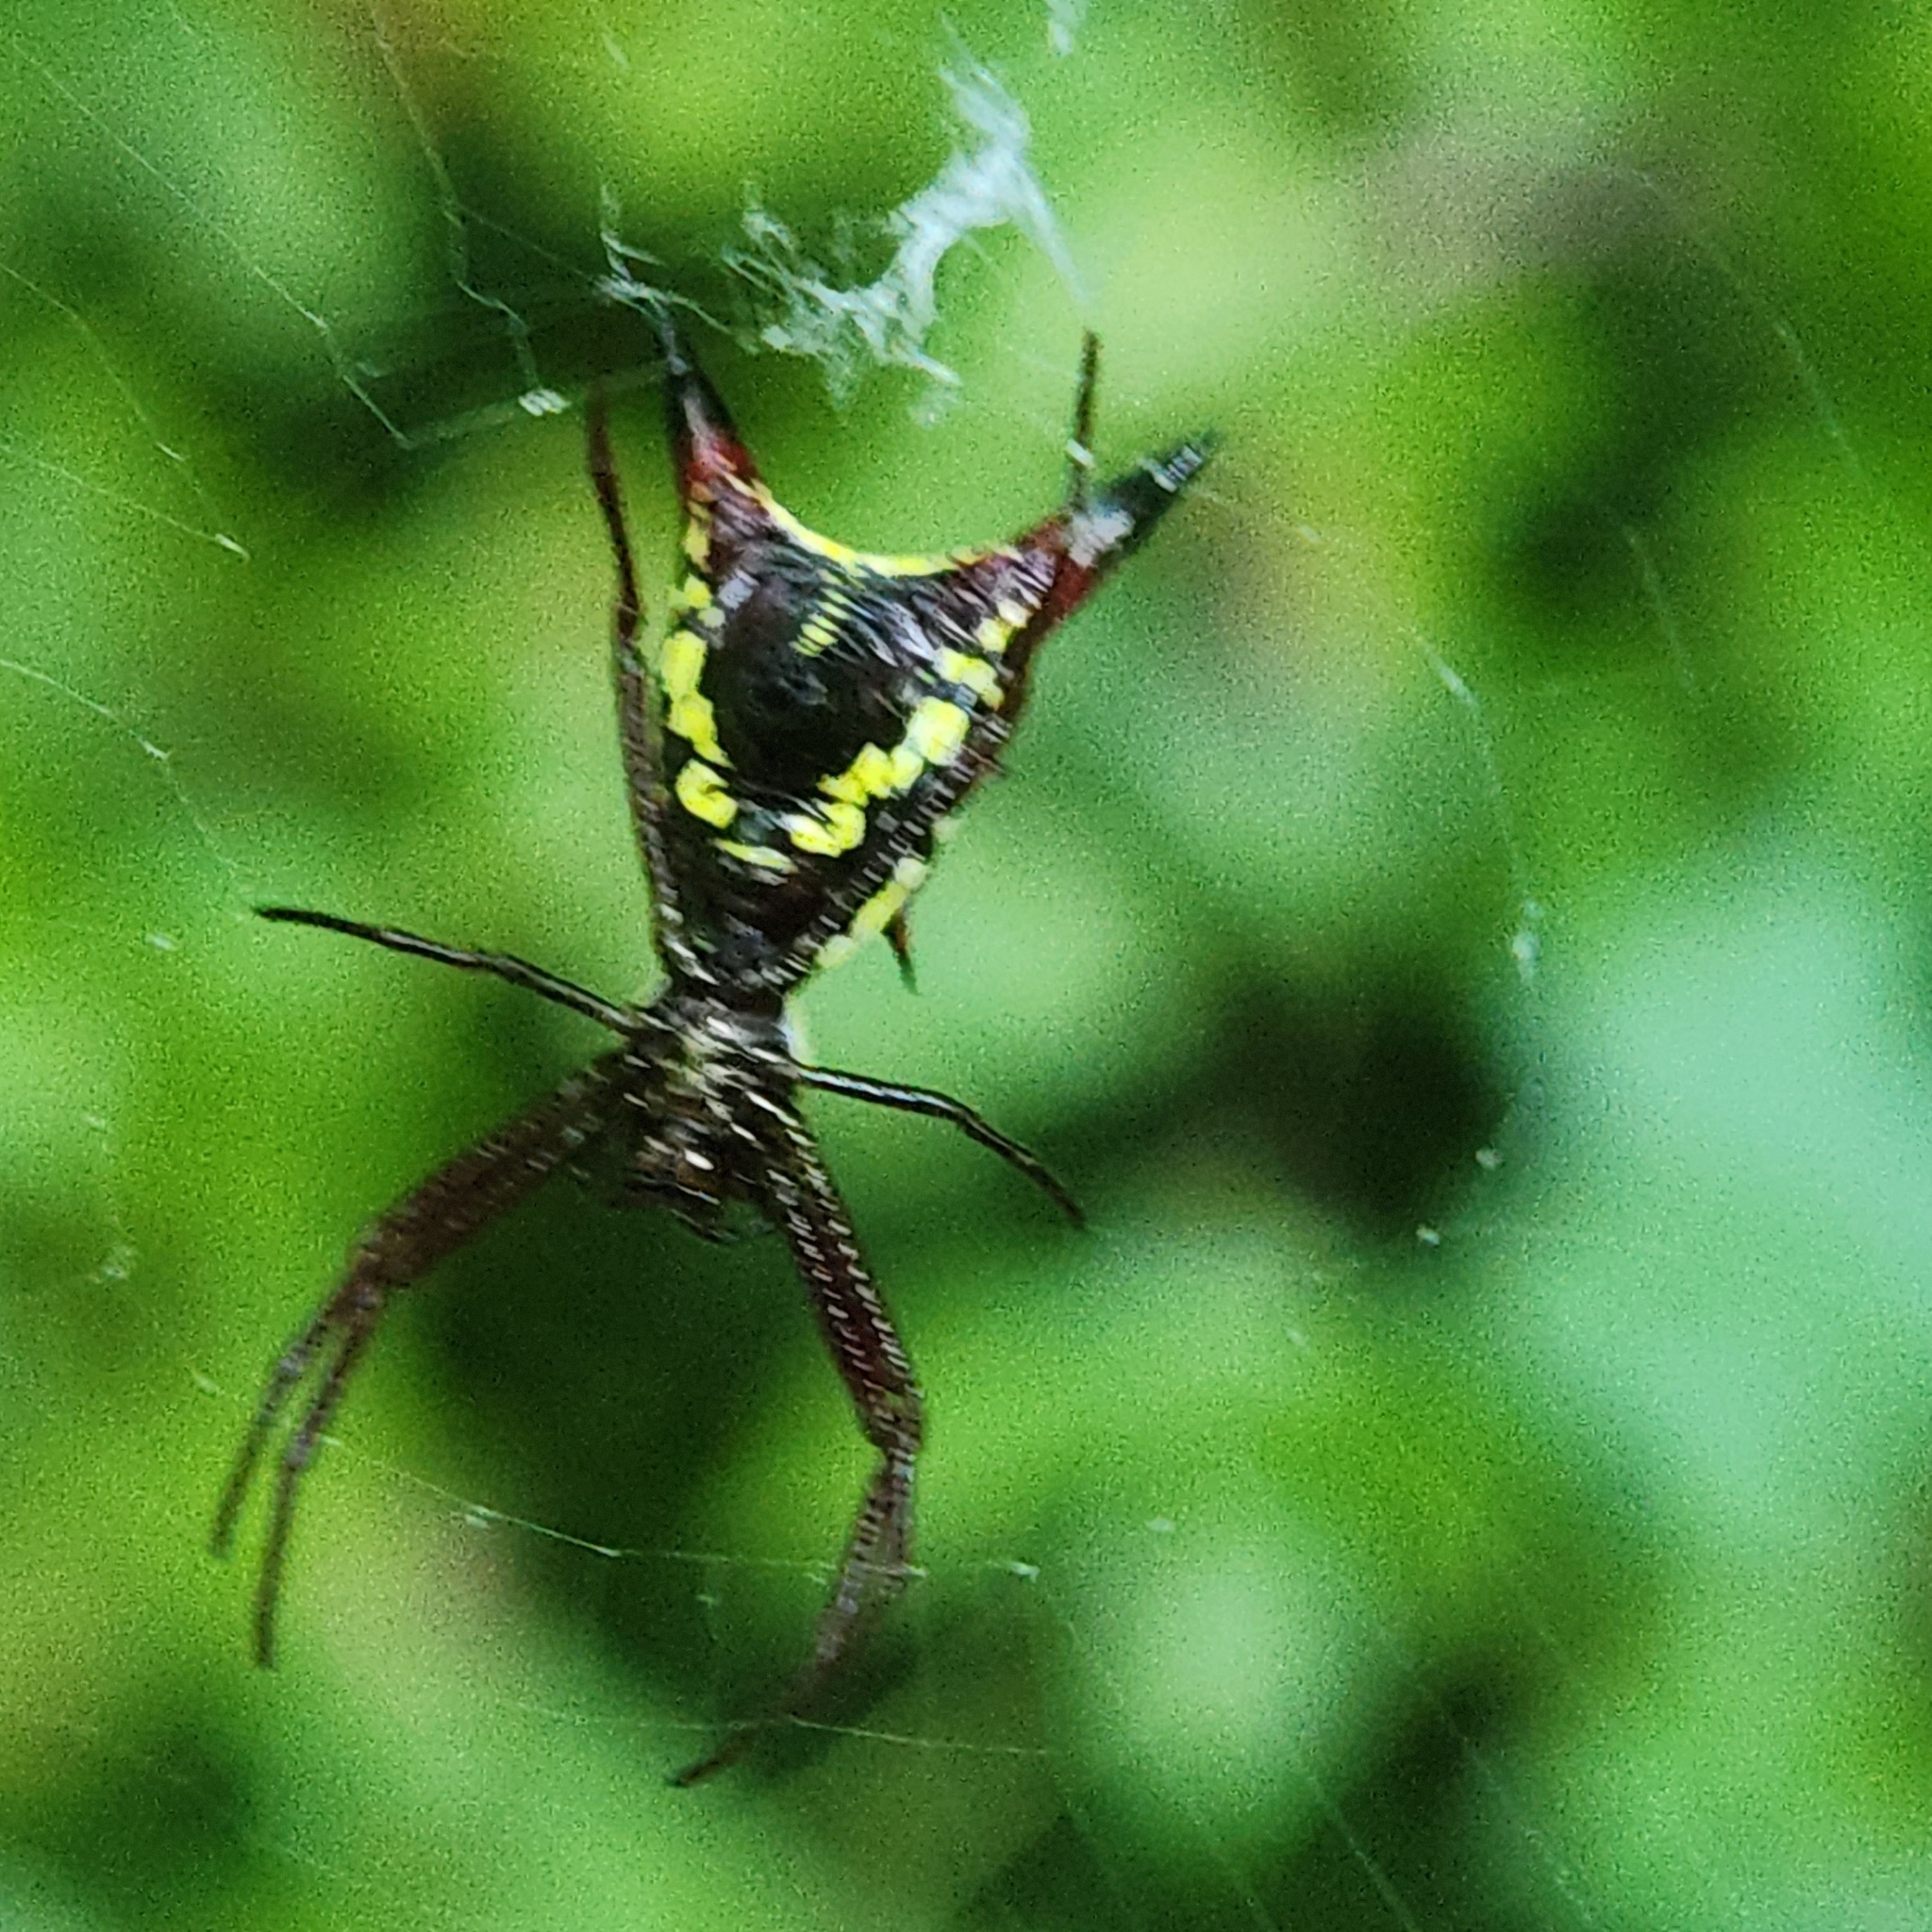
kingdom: Animalia
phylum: Arthropoda
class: Arachnida
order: Araneae
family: Araneidae
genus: Micrathena
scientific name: Micrathena sagittata
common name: Orb weavers
